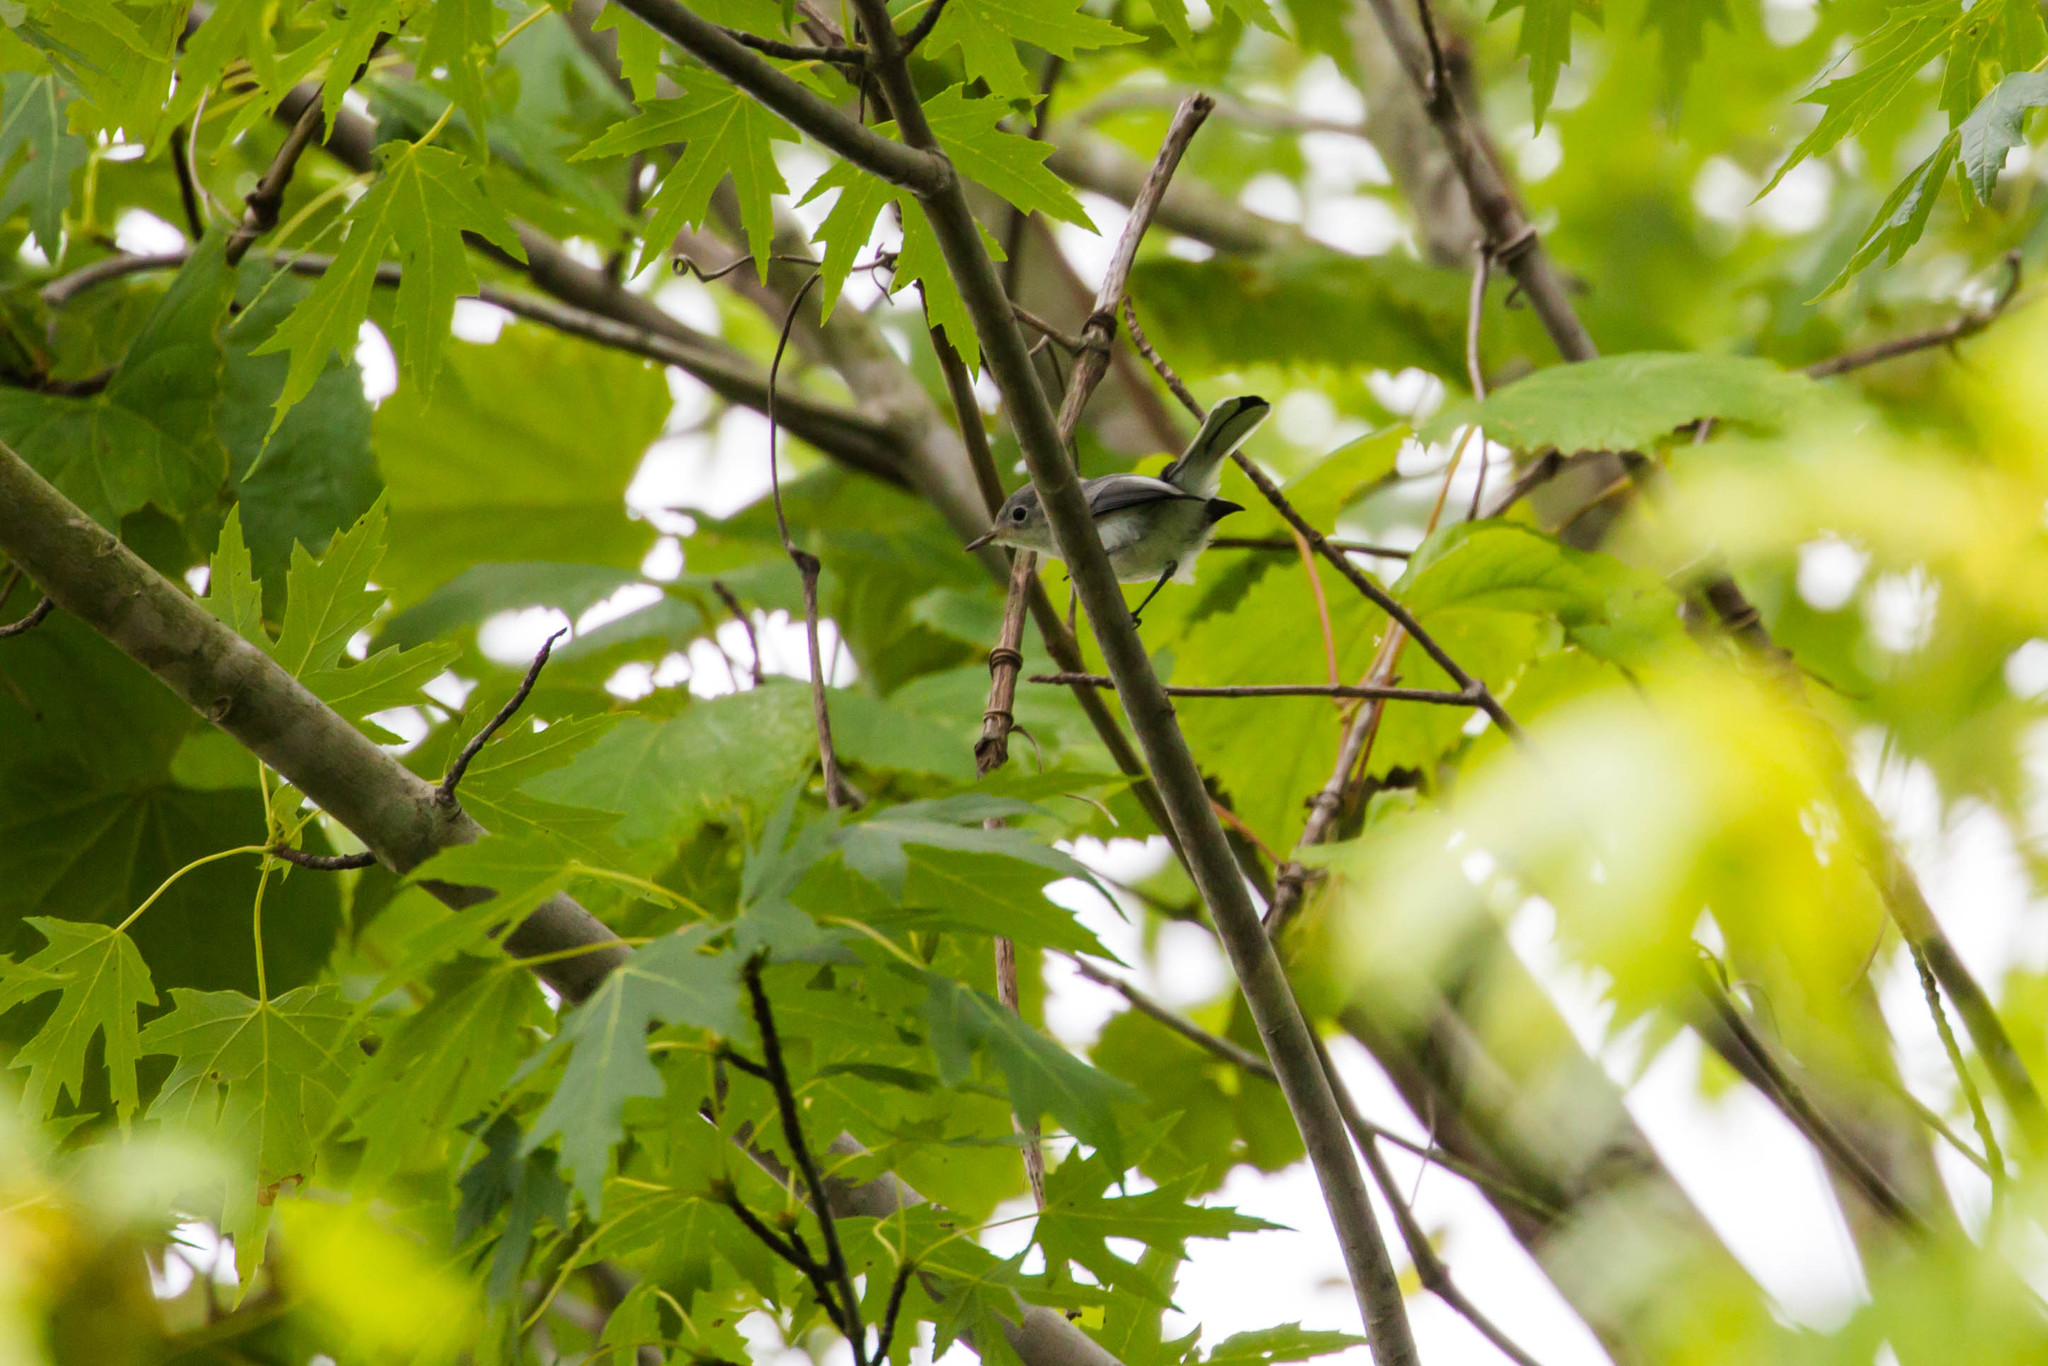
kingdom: Animalia
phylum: Chordata
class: Aves
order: Passeriformes
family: Polioptilidae
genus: Polioptila
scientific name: Polioptila caerulea
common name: Blue-gray gnatcatcher
